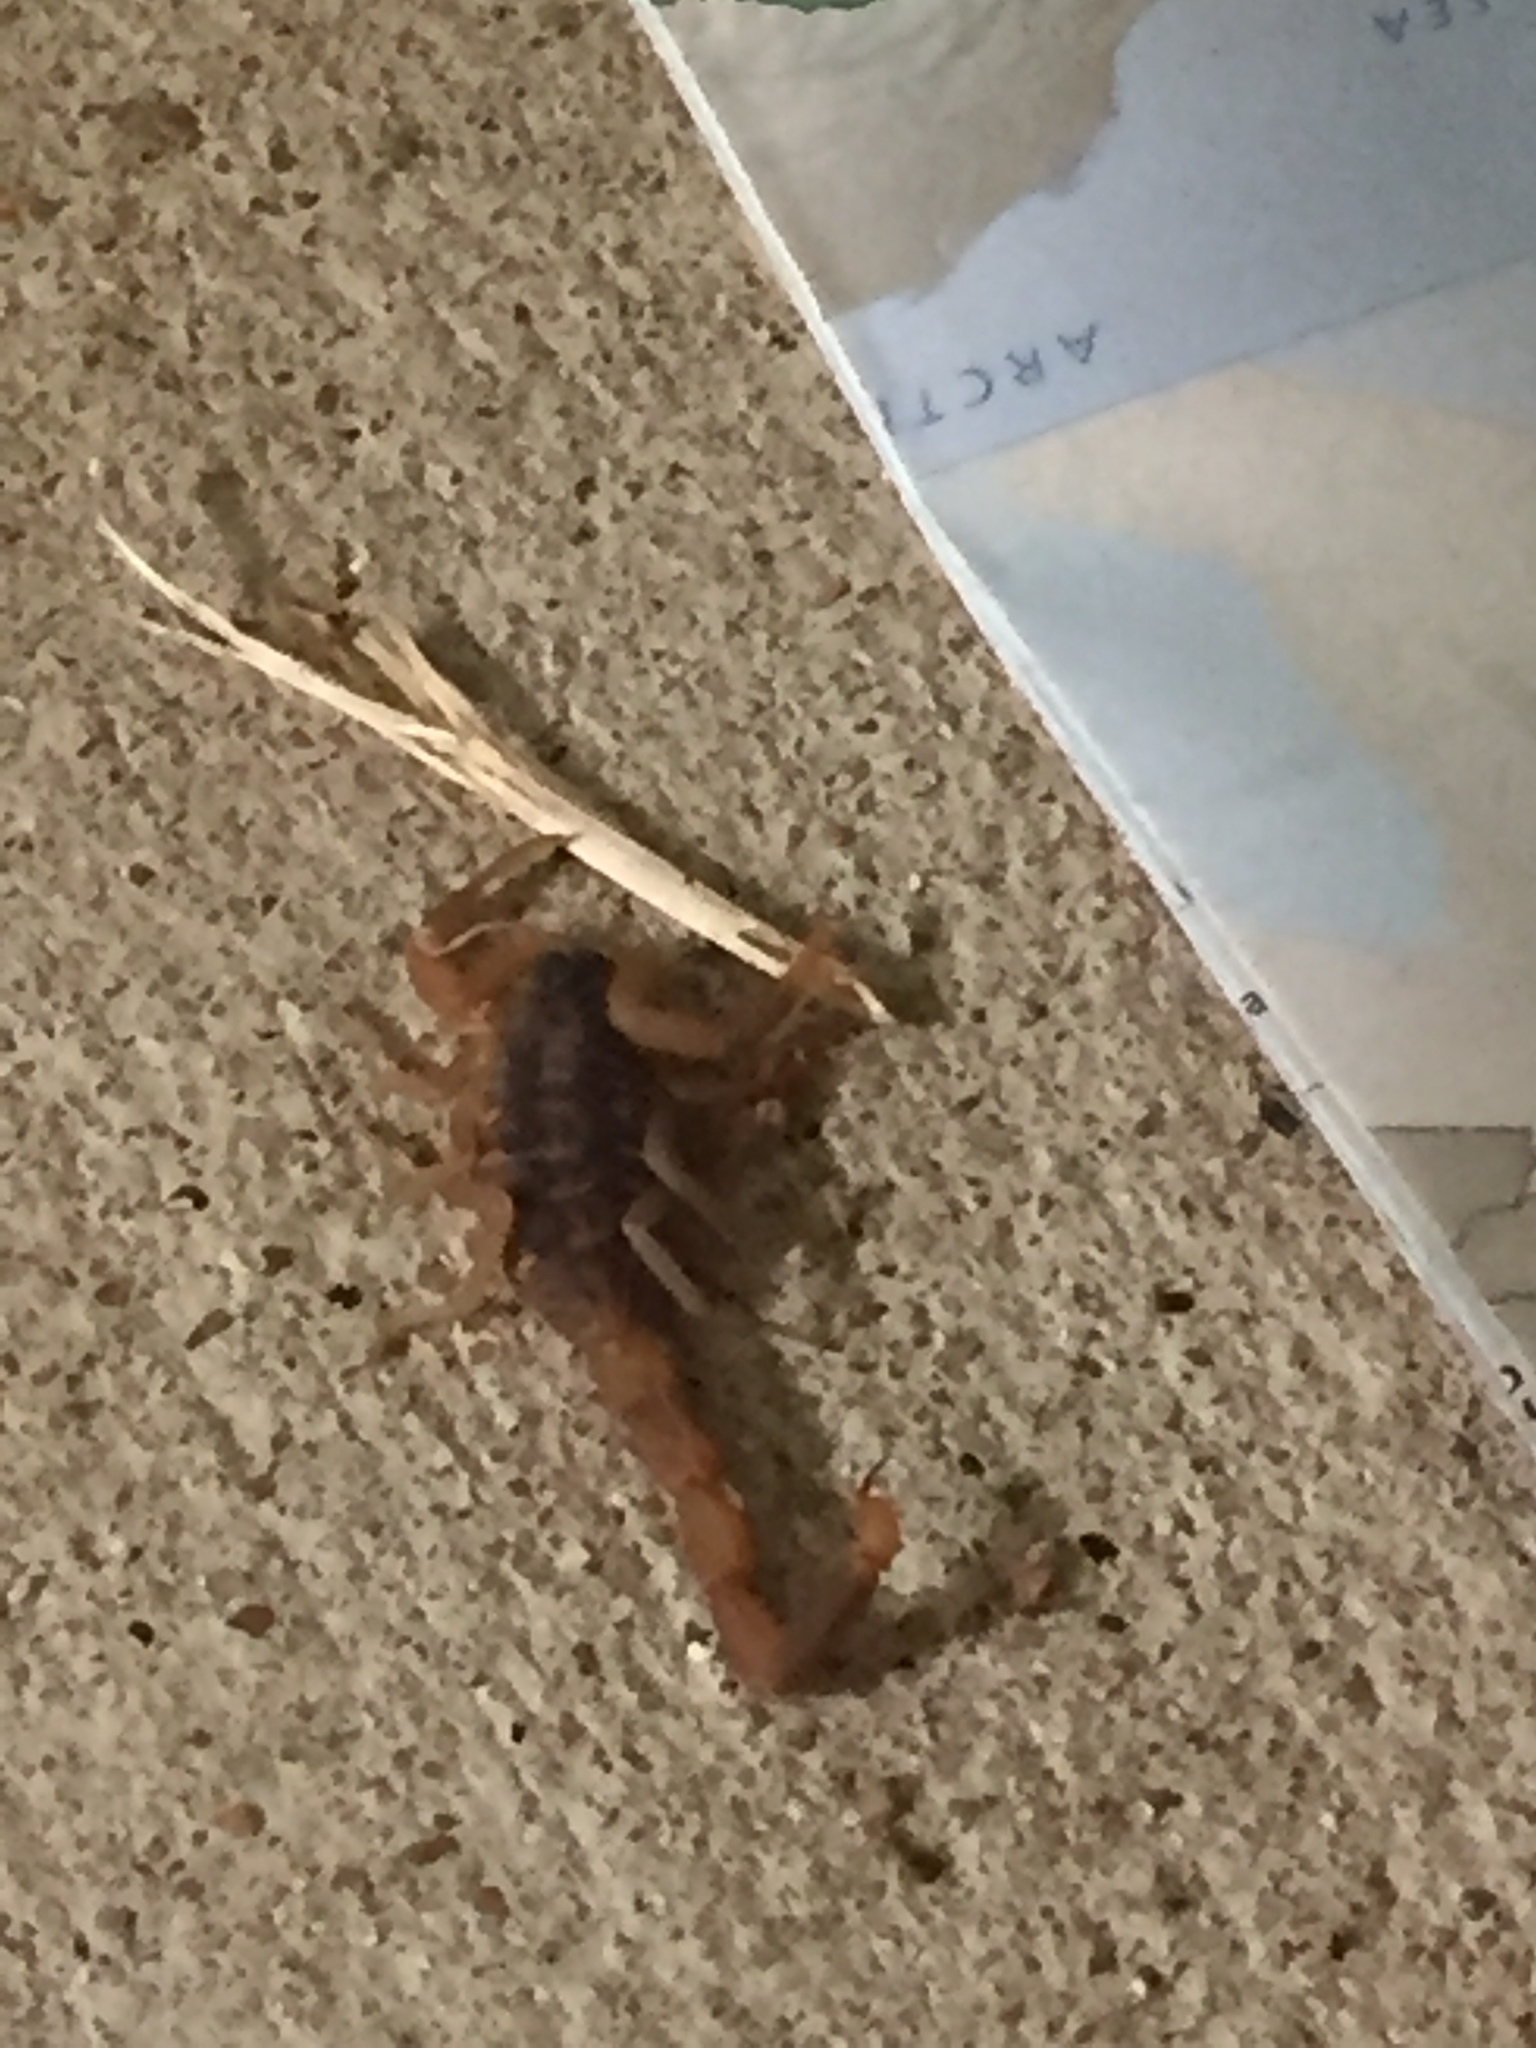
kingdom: Animalia
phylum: Arthropoda
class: Arachnida
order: Scorpiones
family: Buthidae
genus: Centruroides
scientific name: Centruroides vittatus
